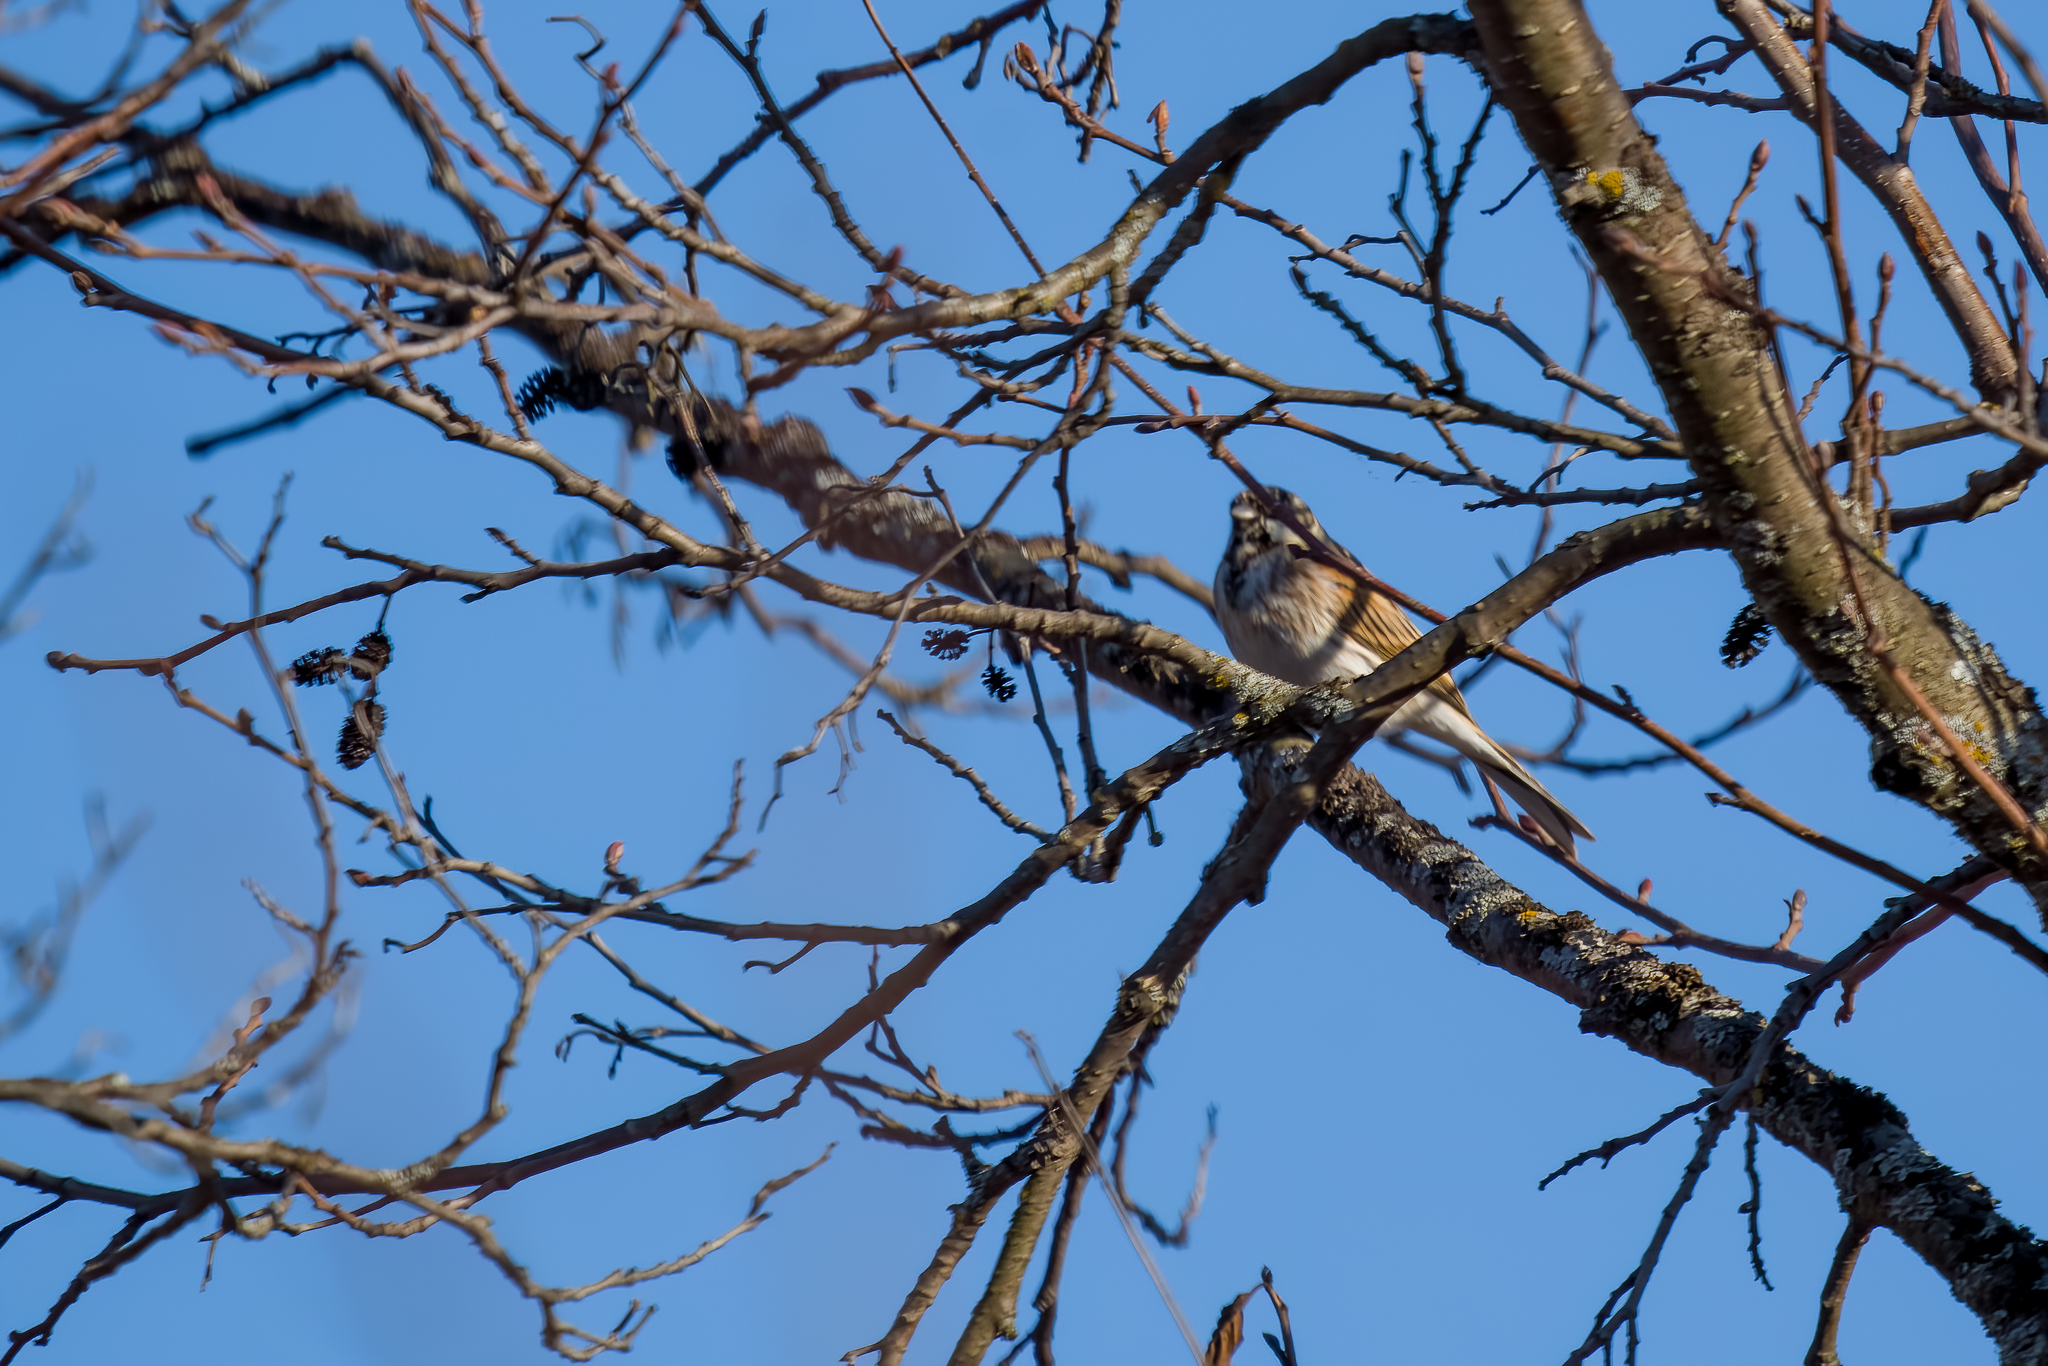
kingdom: Animalia
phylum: Chordata
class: Aves
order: Passeriformes
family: Emberizidae
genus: Emberiza
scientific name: Emberiza schoeniclus
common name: Reed bunting
